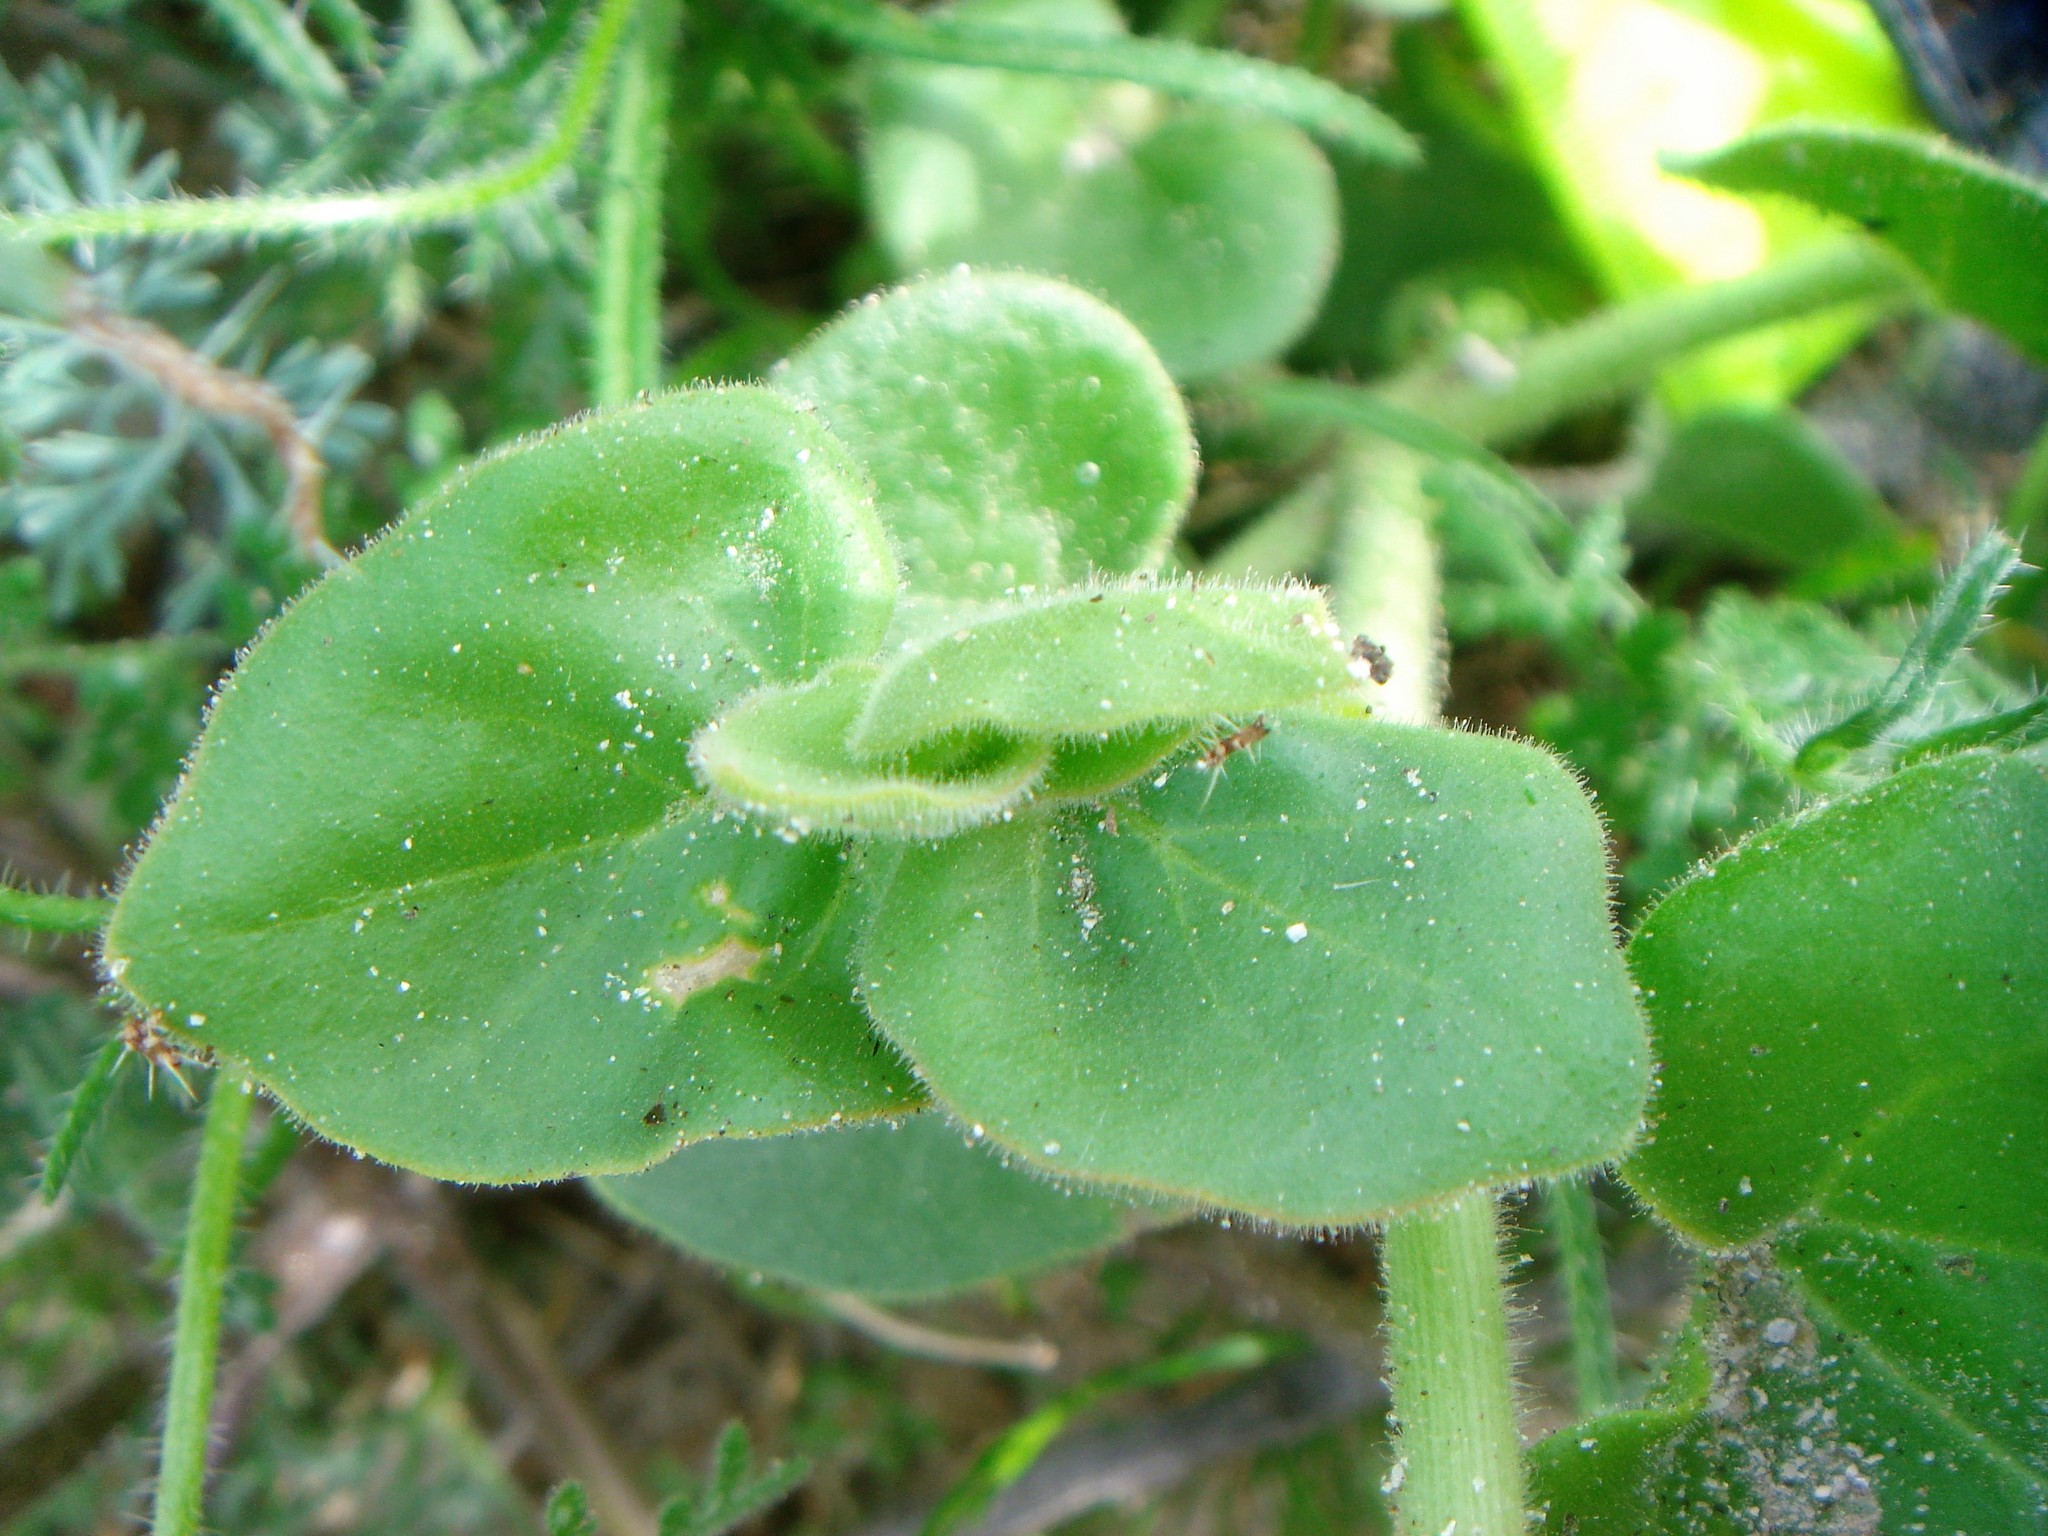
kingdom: Plantae
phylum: Tracheophyta
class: Magnoliopsida
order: Caryophyllales
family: Nyctaginaceae
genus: Mirabilis
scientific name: Mirabilis tenuiloba
